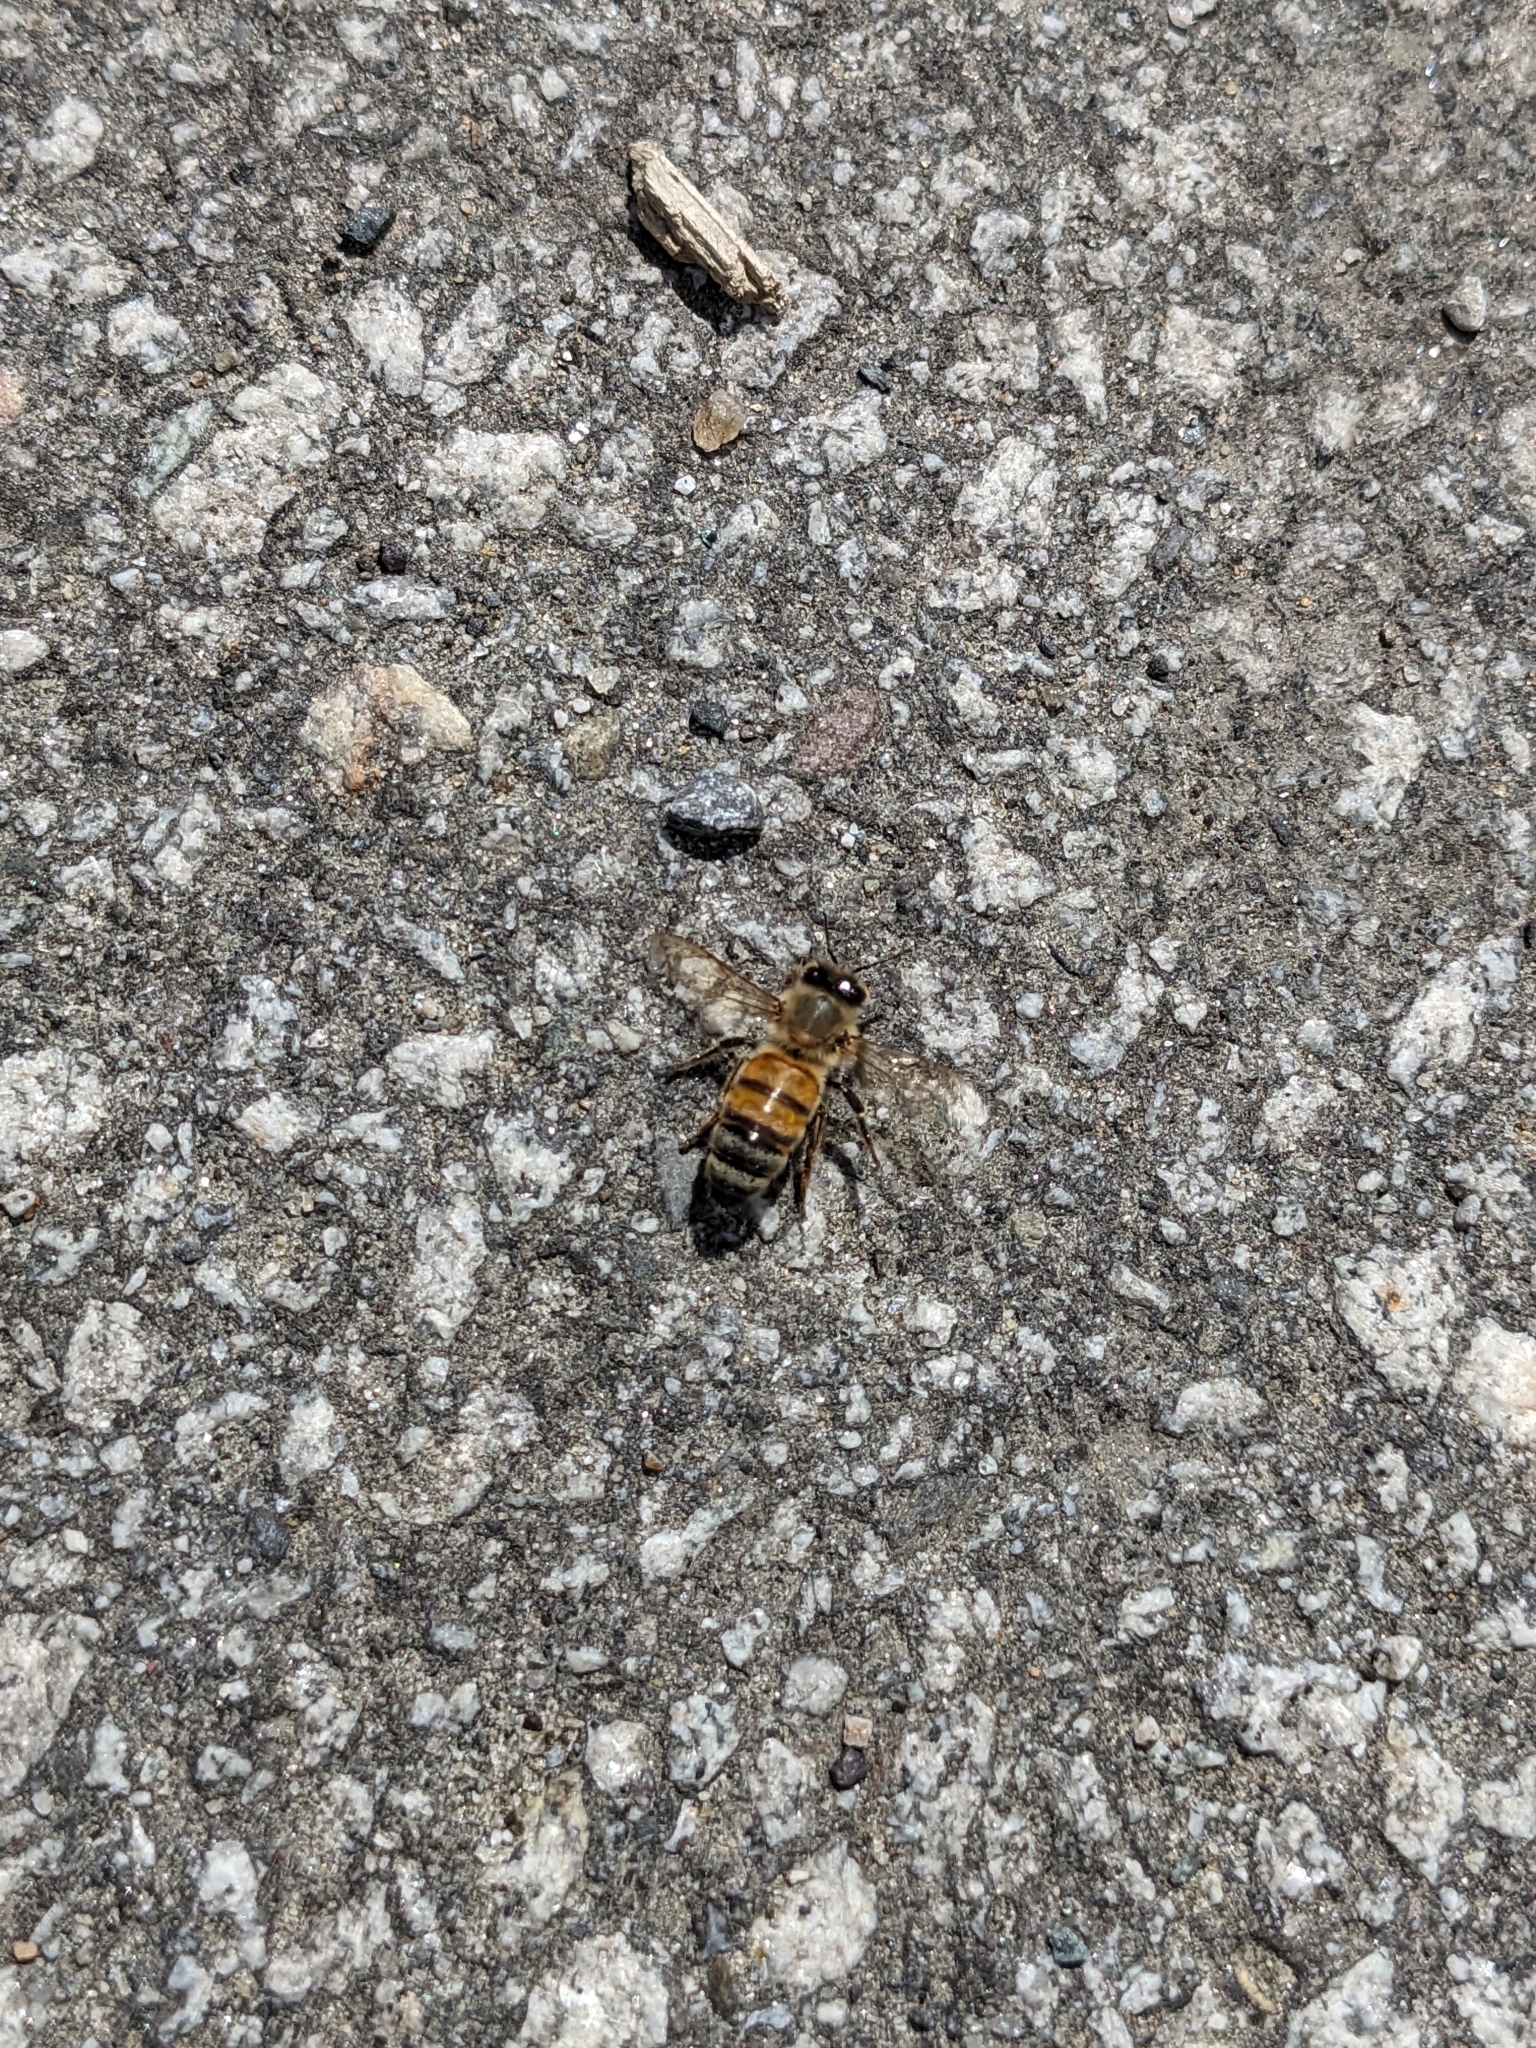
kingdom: Animalia
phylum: Arthropoda
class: Insecta
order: Hymenoptera
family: Apidae
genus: Apis
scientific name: Apis mellifera
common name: Honey bee
